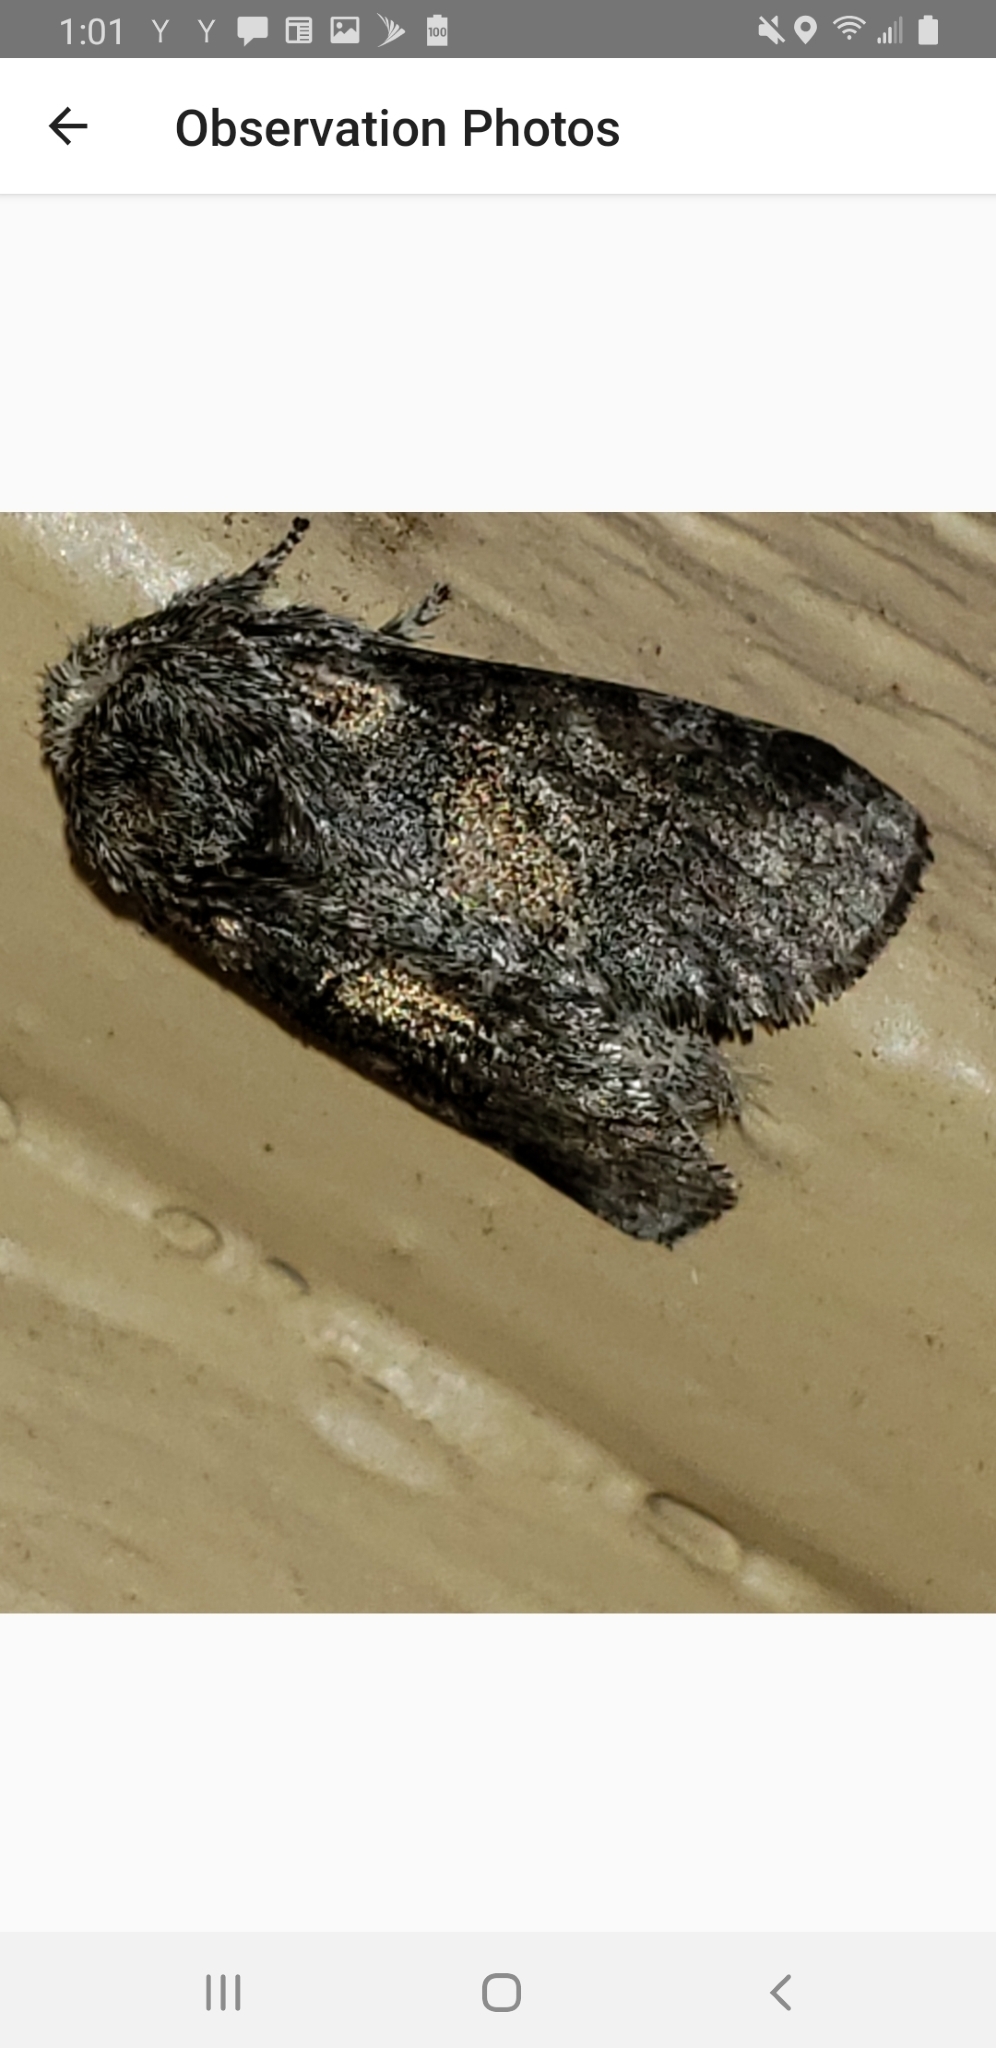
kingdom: Animalia
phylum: Arthropoda
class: Insecta
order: Lepidoptera
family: Notodontidae
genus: Gluphisia
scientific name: Gluphisia septentrionis
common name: Common gluphisia
